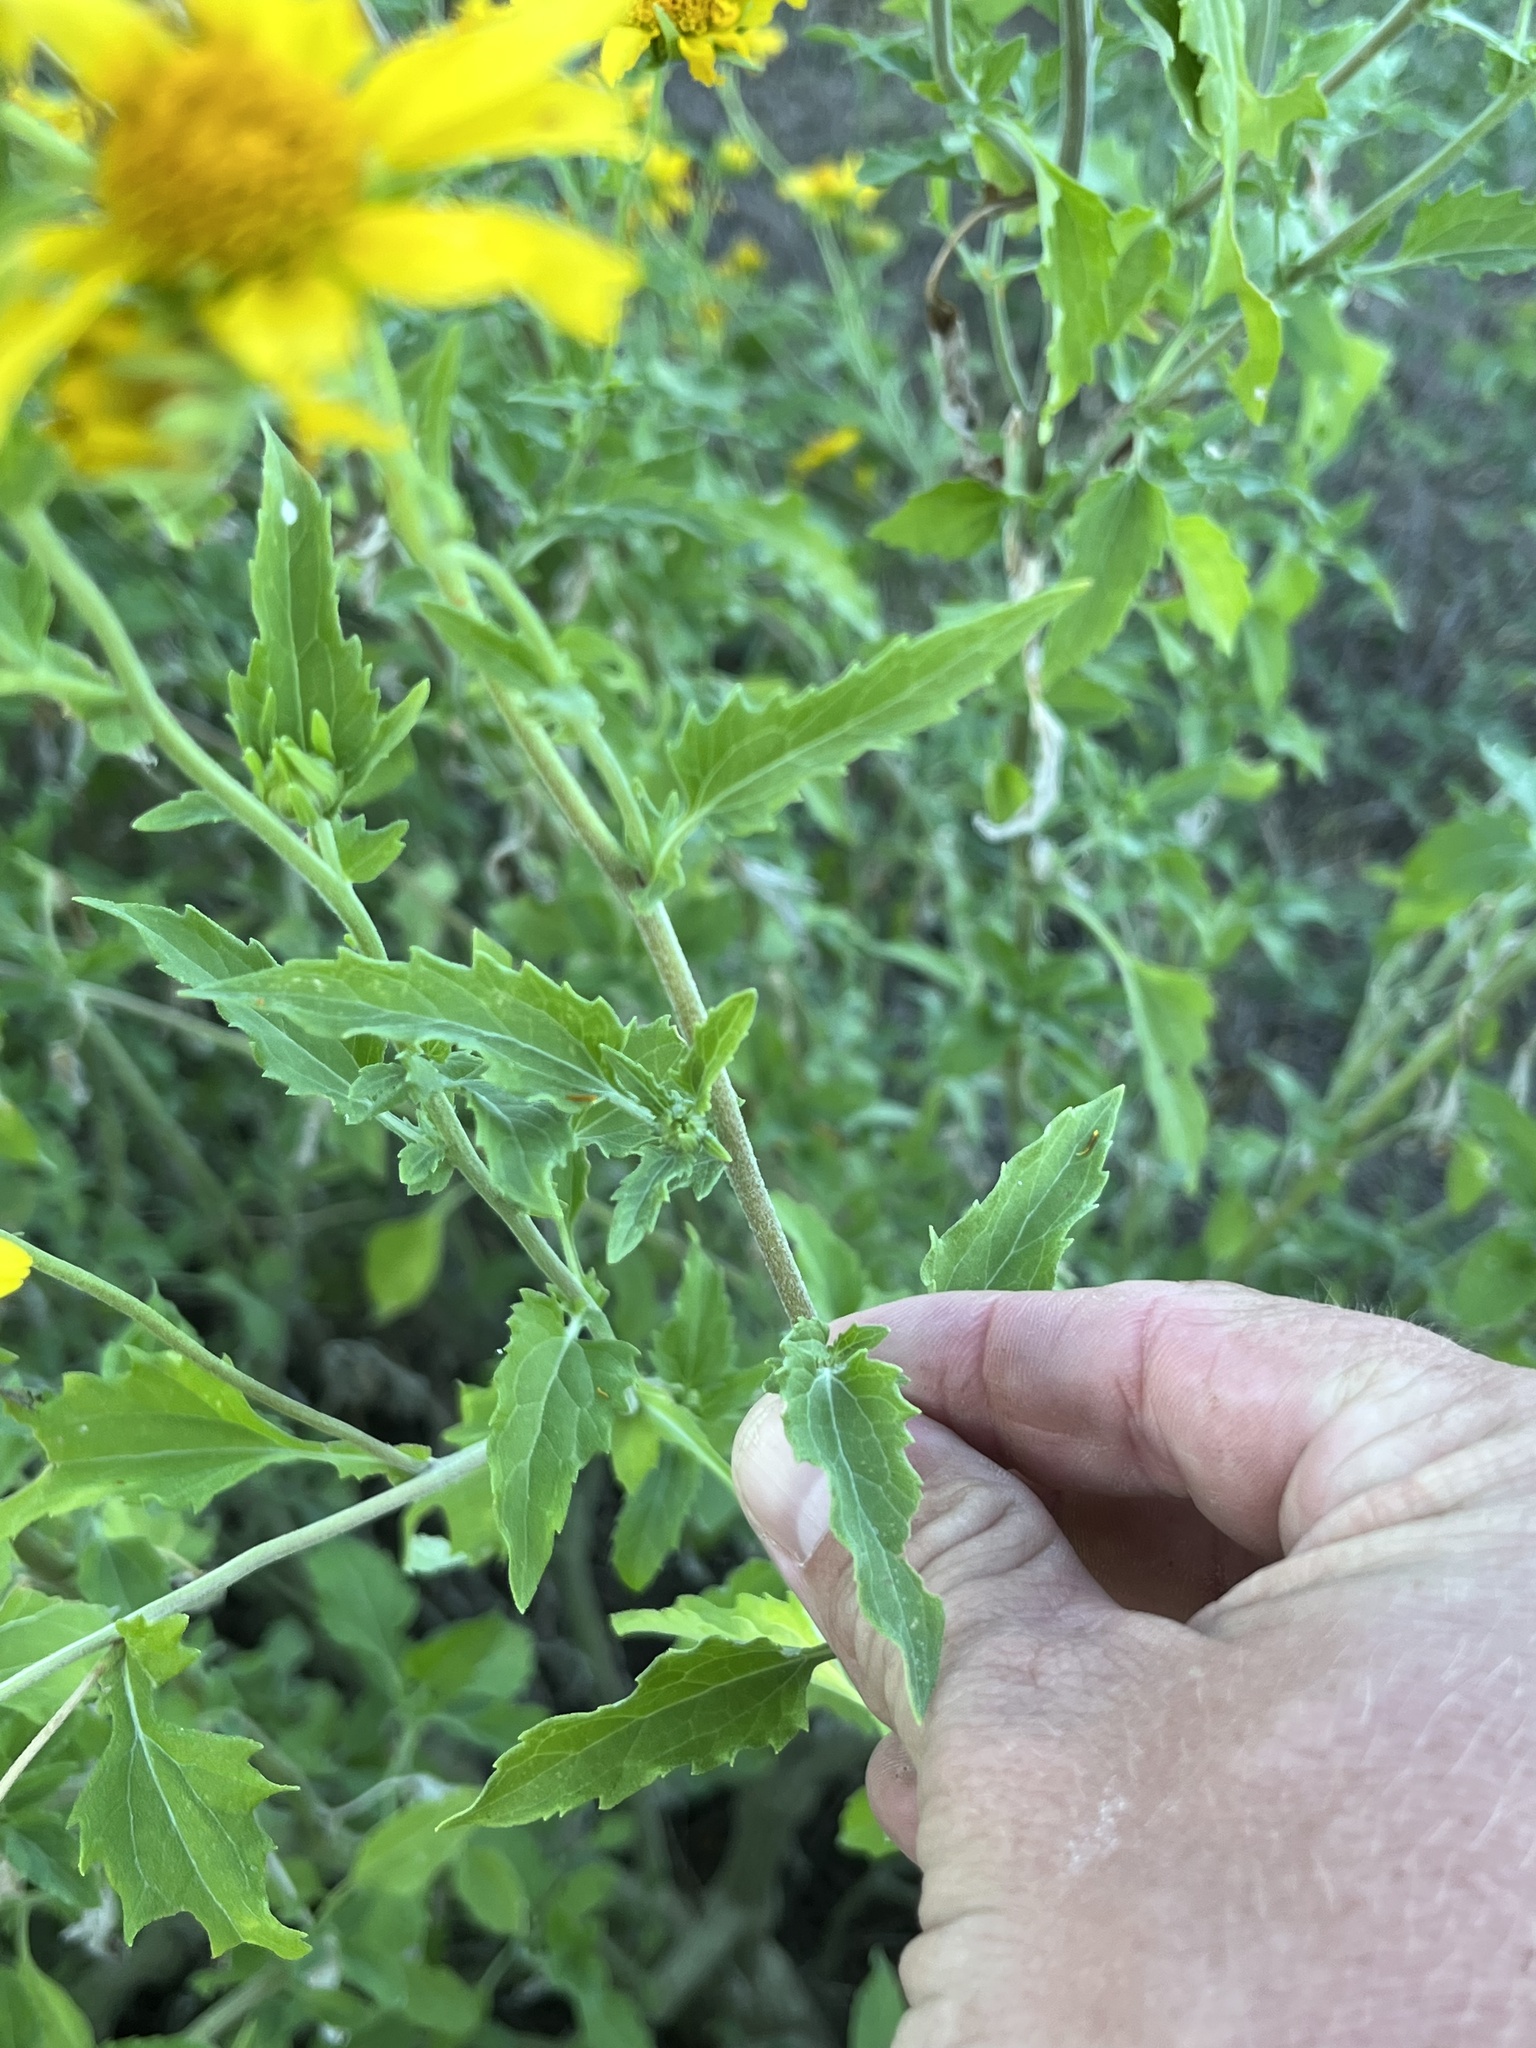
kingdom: Plantae
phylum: Tracheophyta
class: Magnoliopsida
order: Asterales
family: Asteraceae
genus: Verbesina
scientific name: Verbesina encelioides
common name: Golden crownbeard
